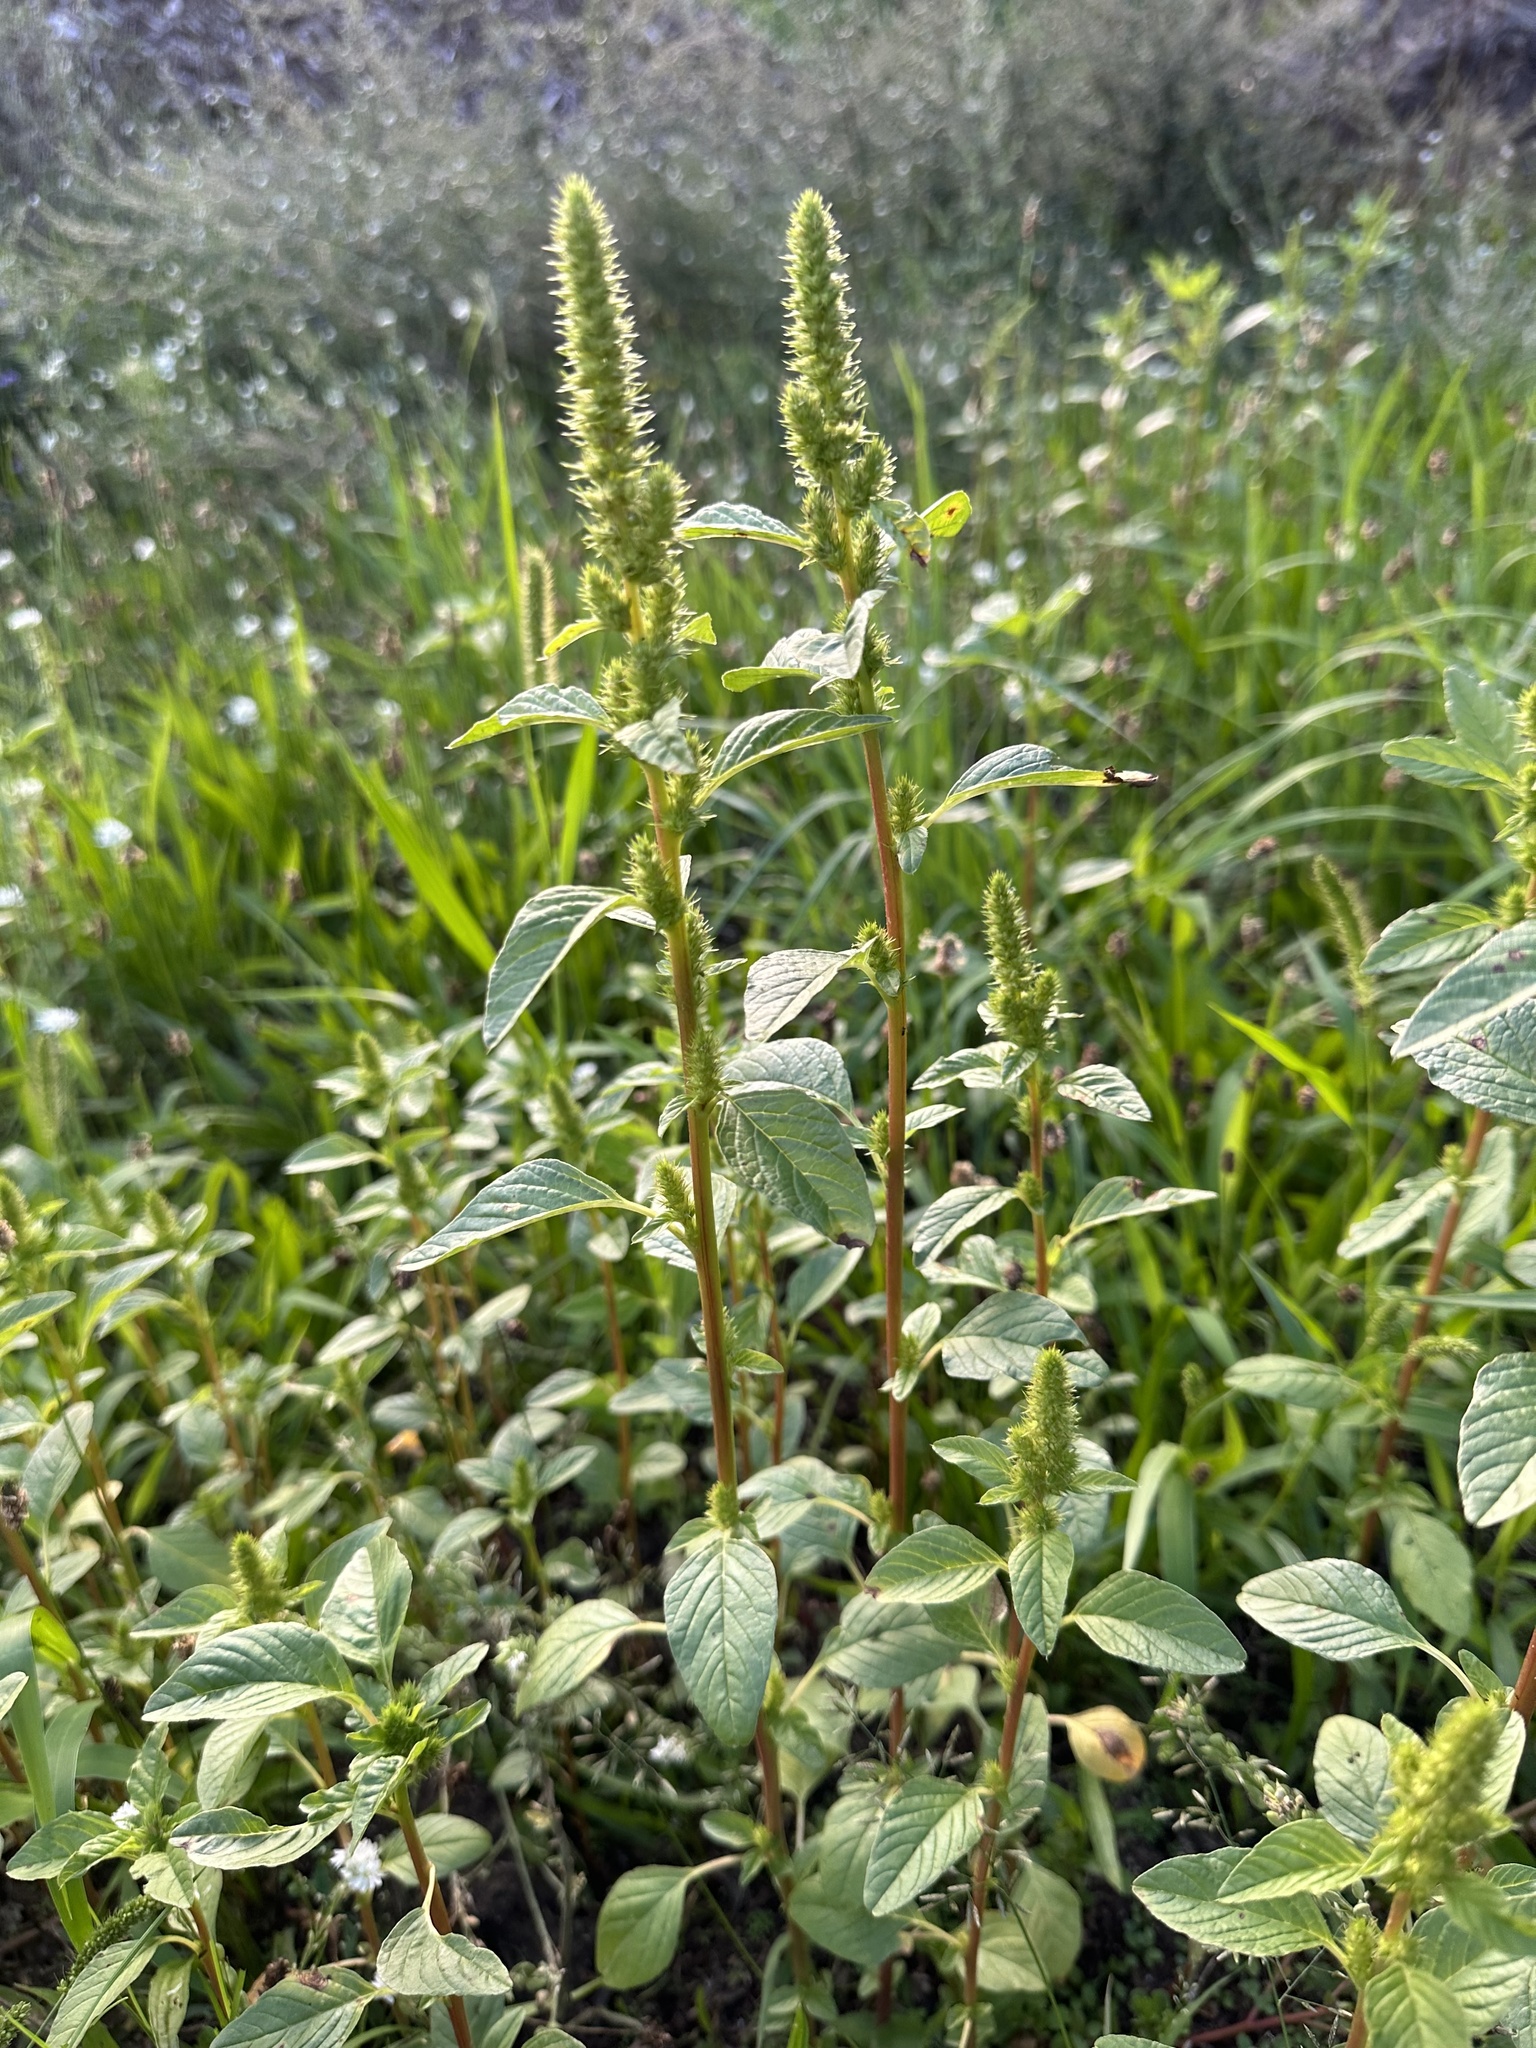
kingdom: Plantae
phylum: Tracheophyta
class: Magnoliopsida
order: Caryophyllales
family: Amaranthaceae
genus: Amaranthus
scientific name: Amaranthus powellii
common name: Powell's amaranth
